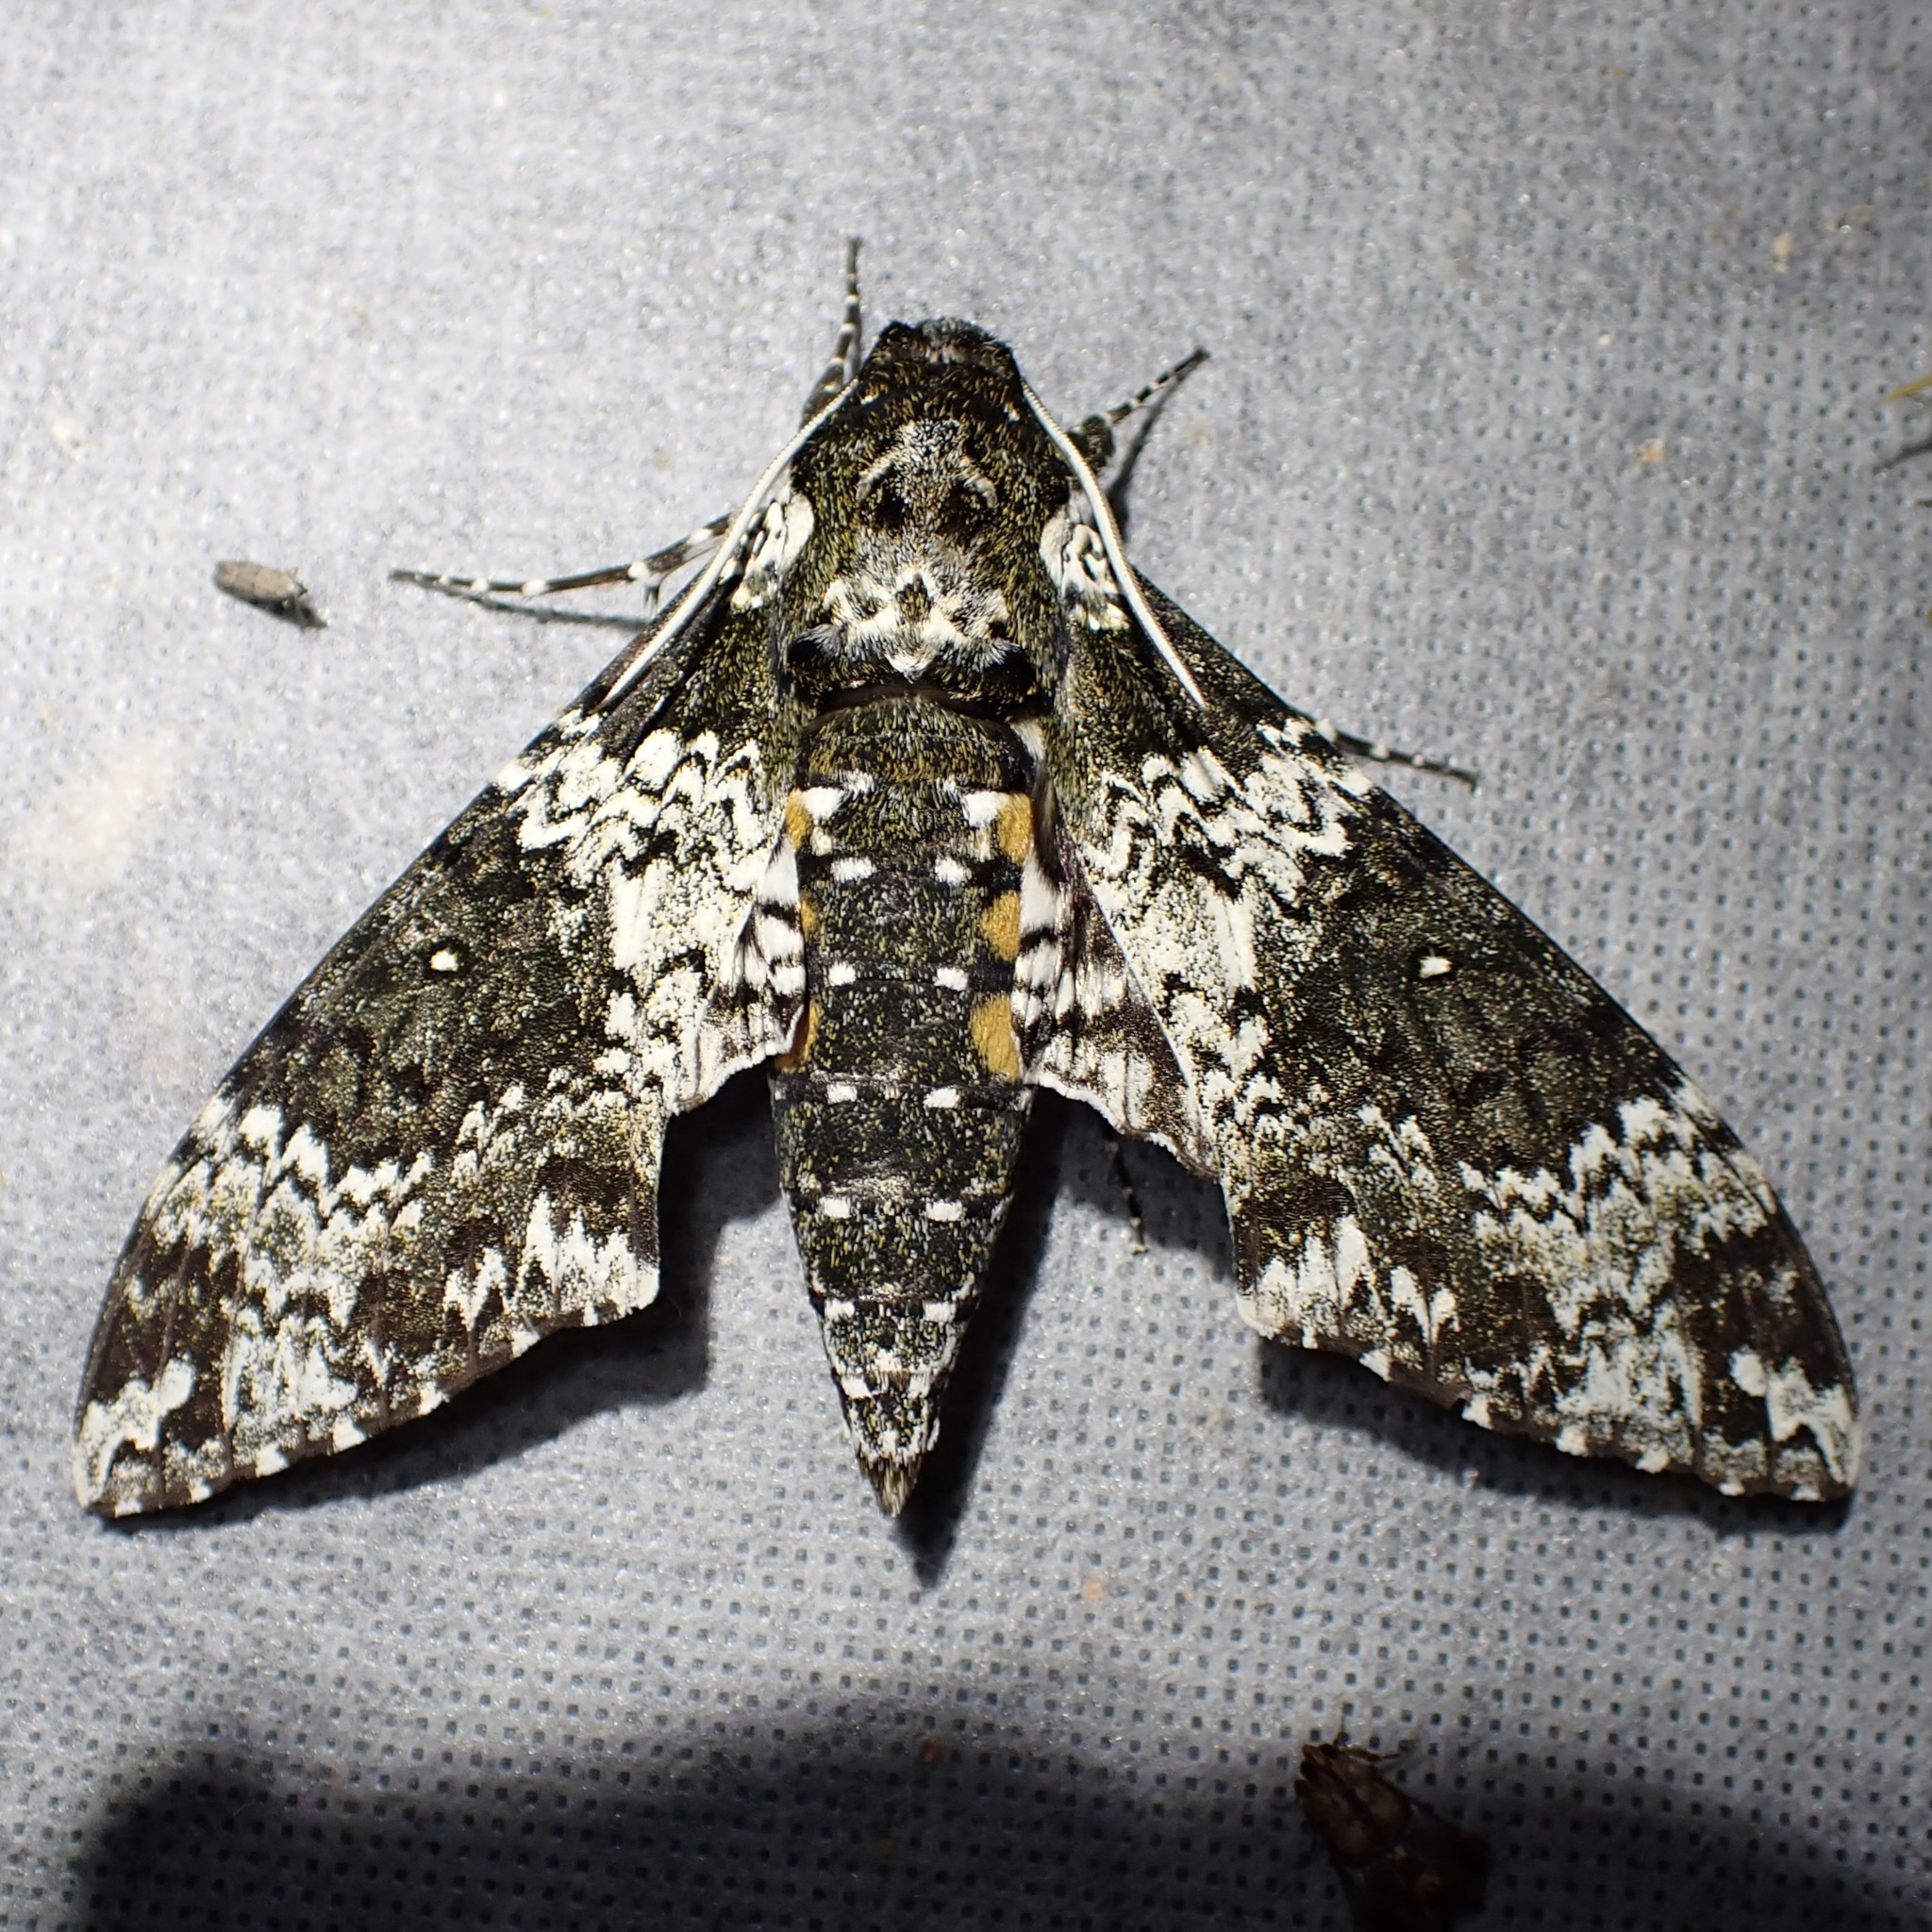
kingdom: Animalia
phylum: Arthropoda
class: Insecta
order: Lepidoptera
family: Sphingidae
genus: Manduca
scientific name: Manduca rustica
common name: Rustic sphinx
